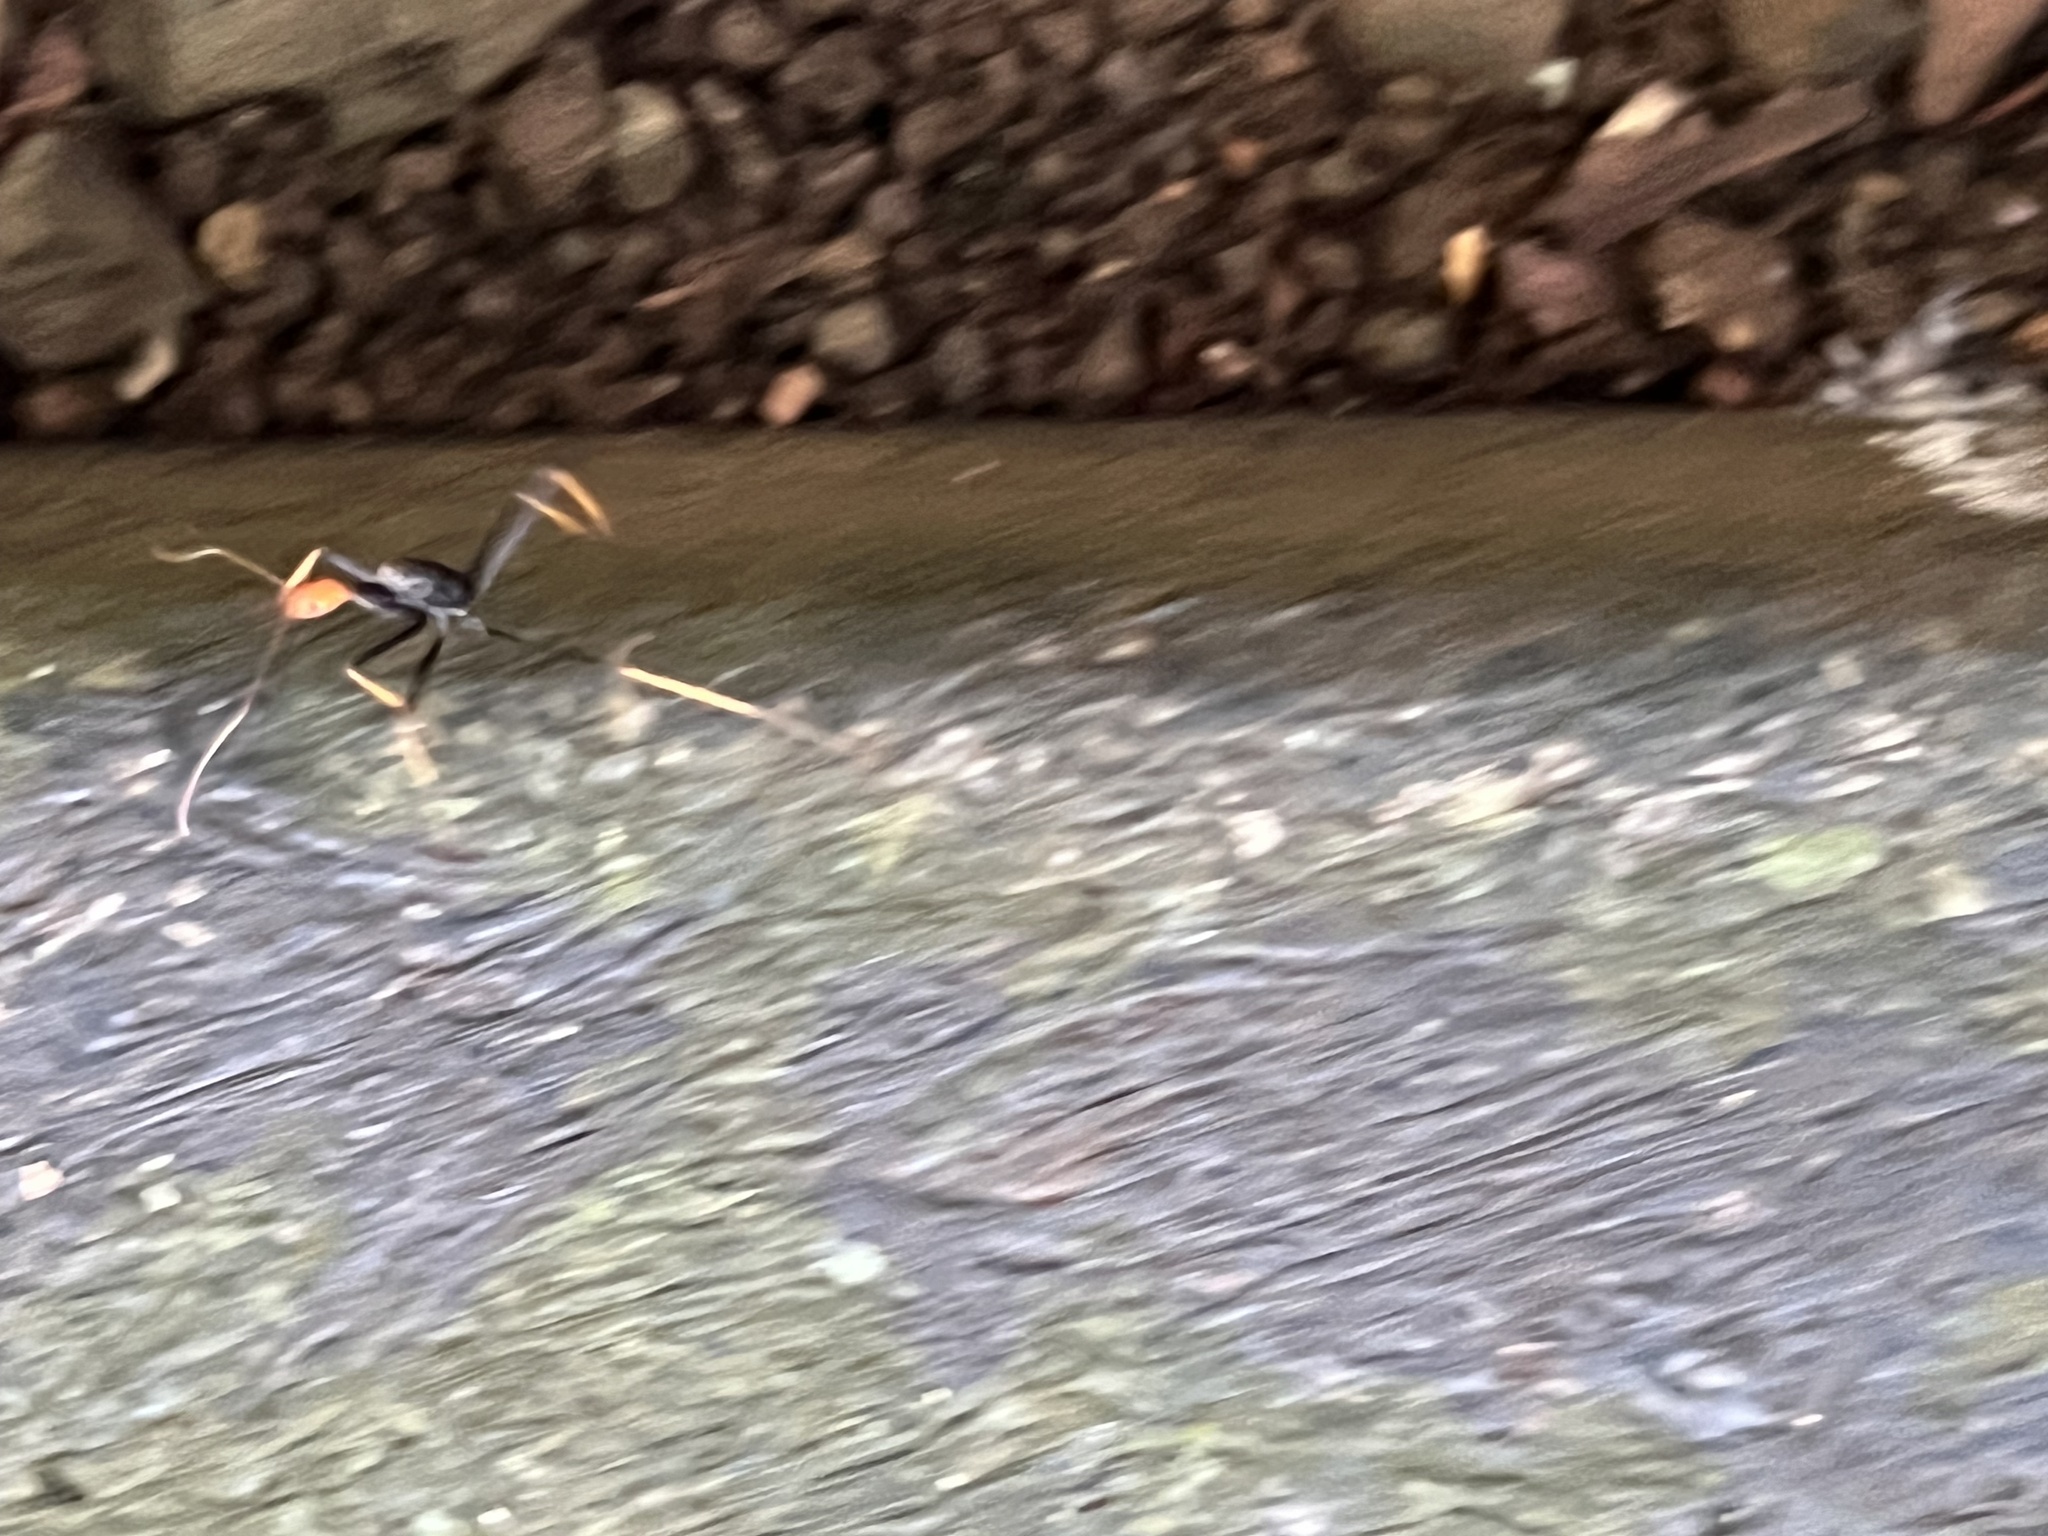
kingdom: Animalia
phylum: Arthropoda
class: Insecta
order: Hymenoptera
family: Formicidae
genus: Leptomyrmex
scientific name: Leptomyrmex ruficeps
